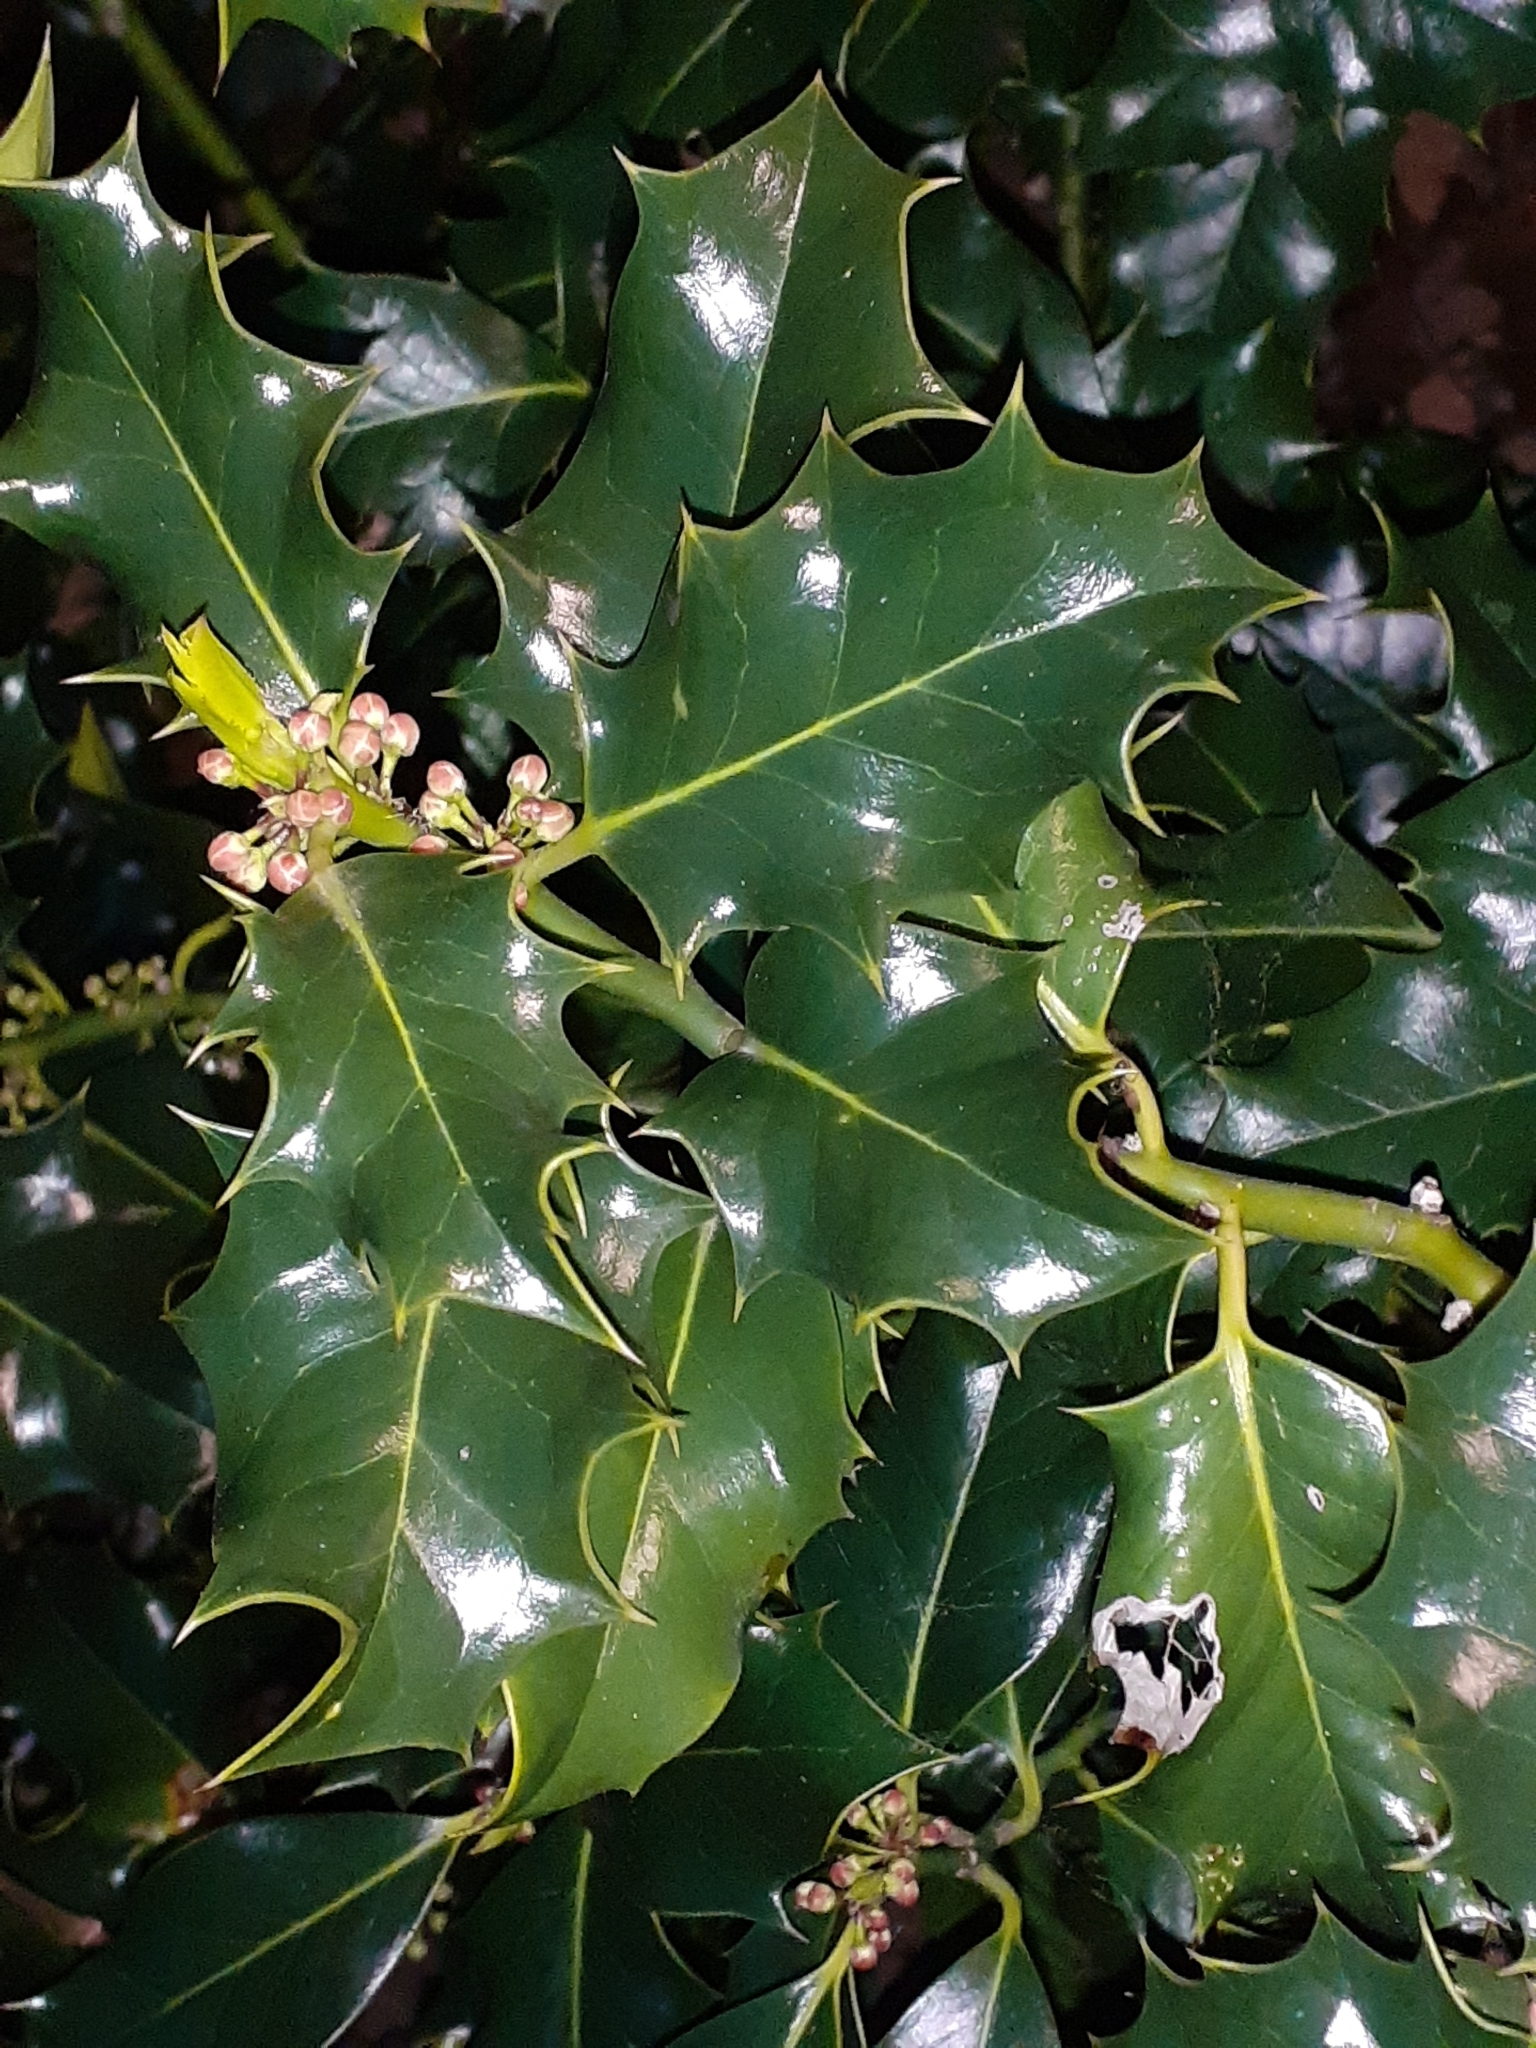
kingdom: Plantae
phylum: Tracheophyta
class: Magnoliopsida
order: Aquifoliales
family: Aquifoliaceae
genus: Ilex
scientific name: Ilex aquifolium
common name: English holly
